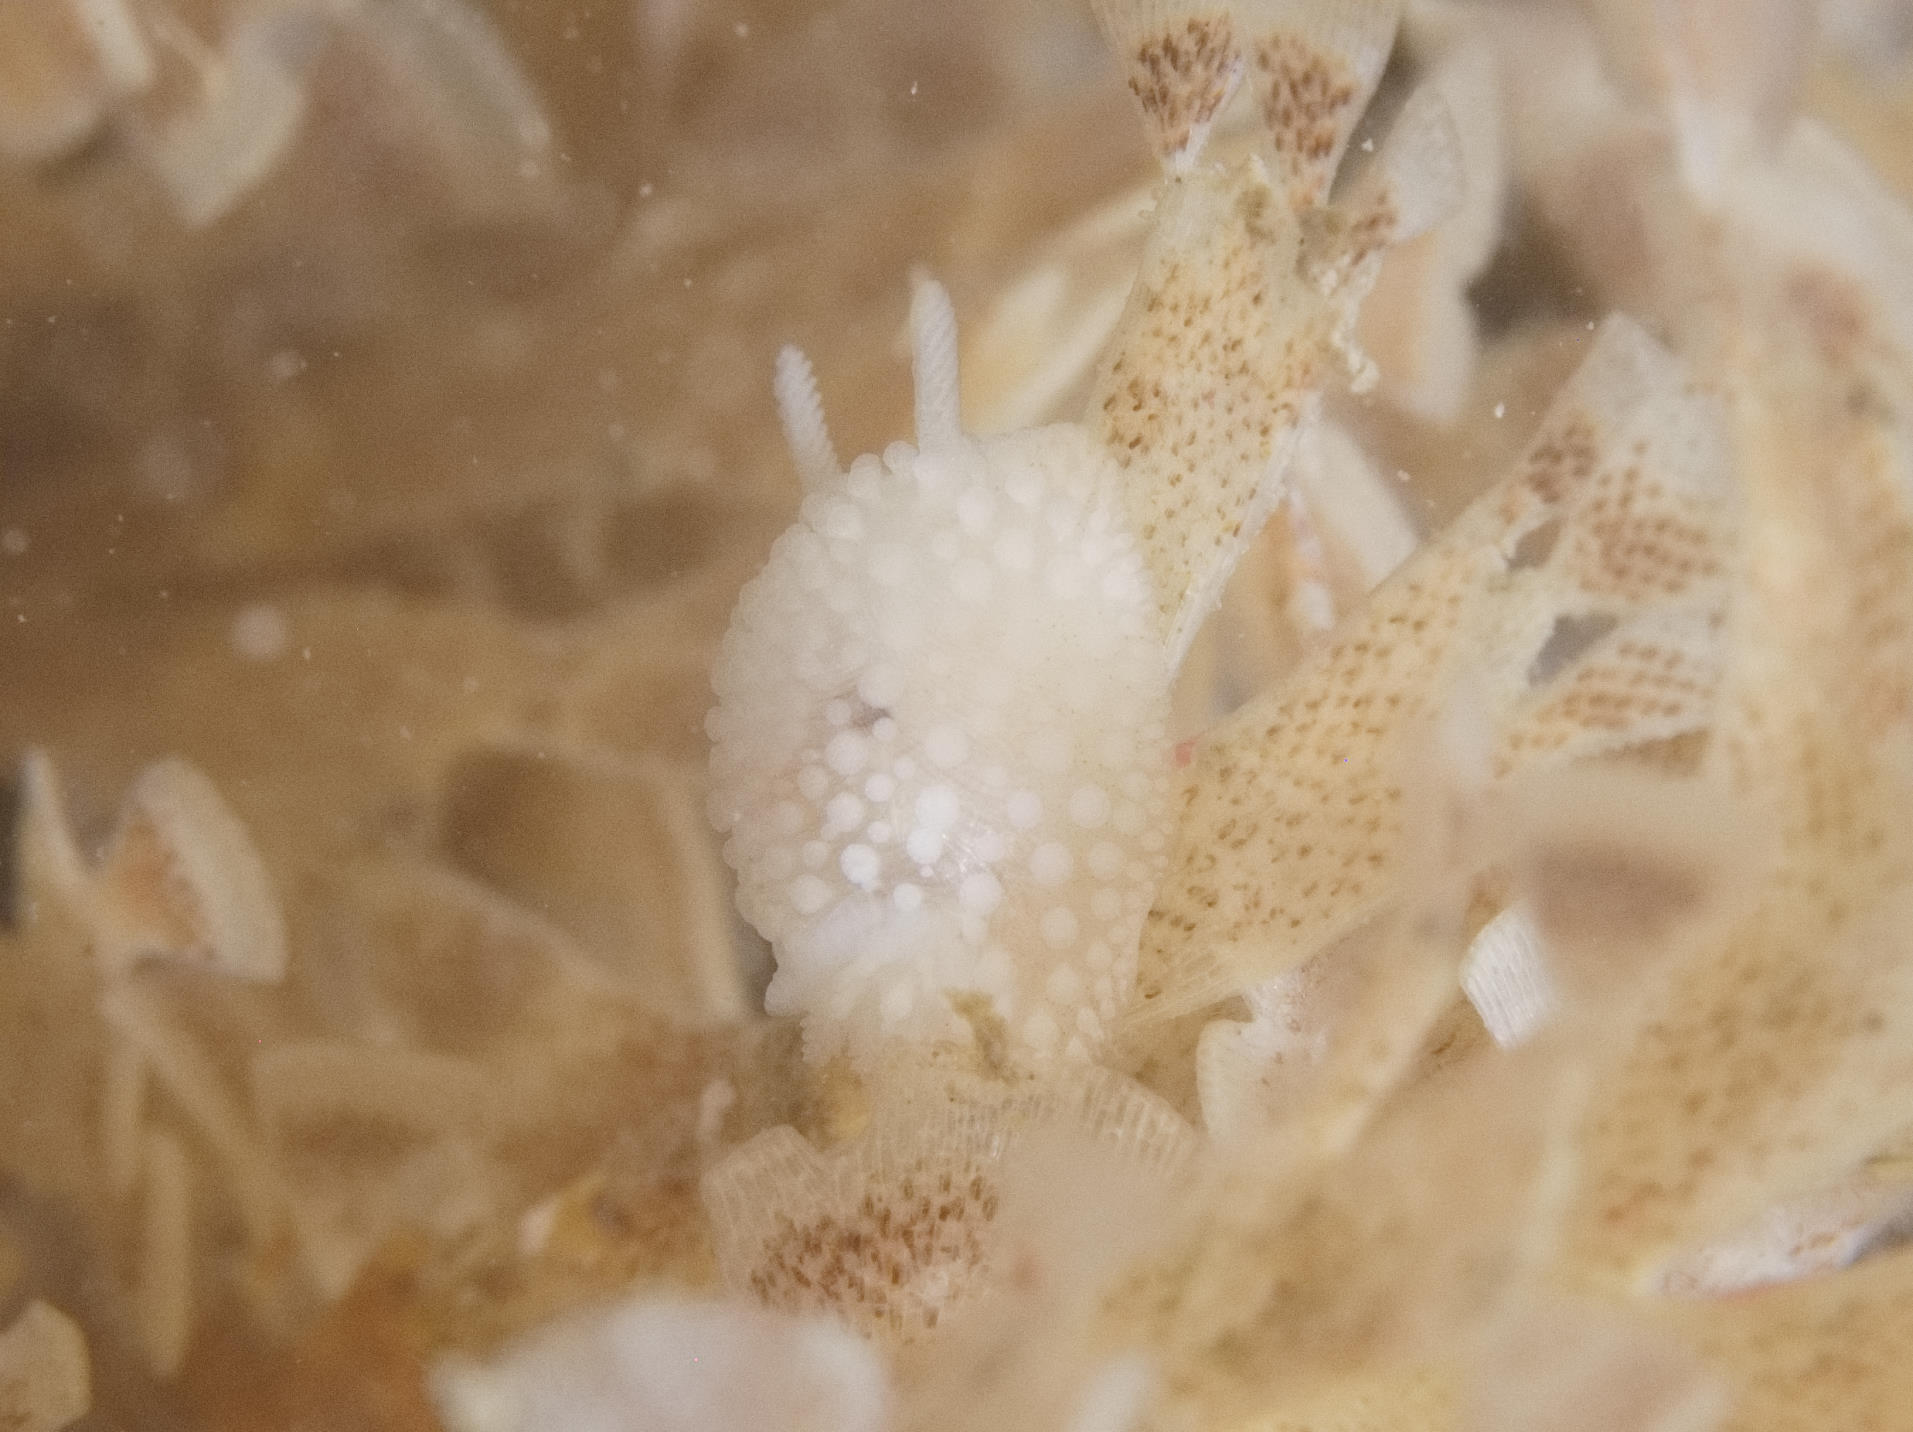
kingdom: Animalia
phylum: Mollusca
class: Gastropoda
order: Nudibranchia
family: Onchidorididae
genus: Onchidoris
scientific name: Onchidoris muricata
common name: Rough doris
